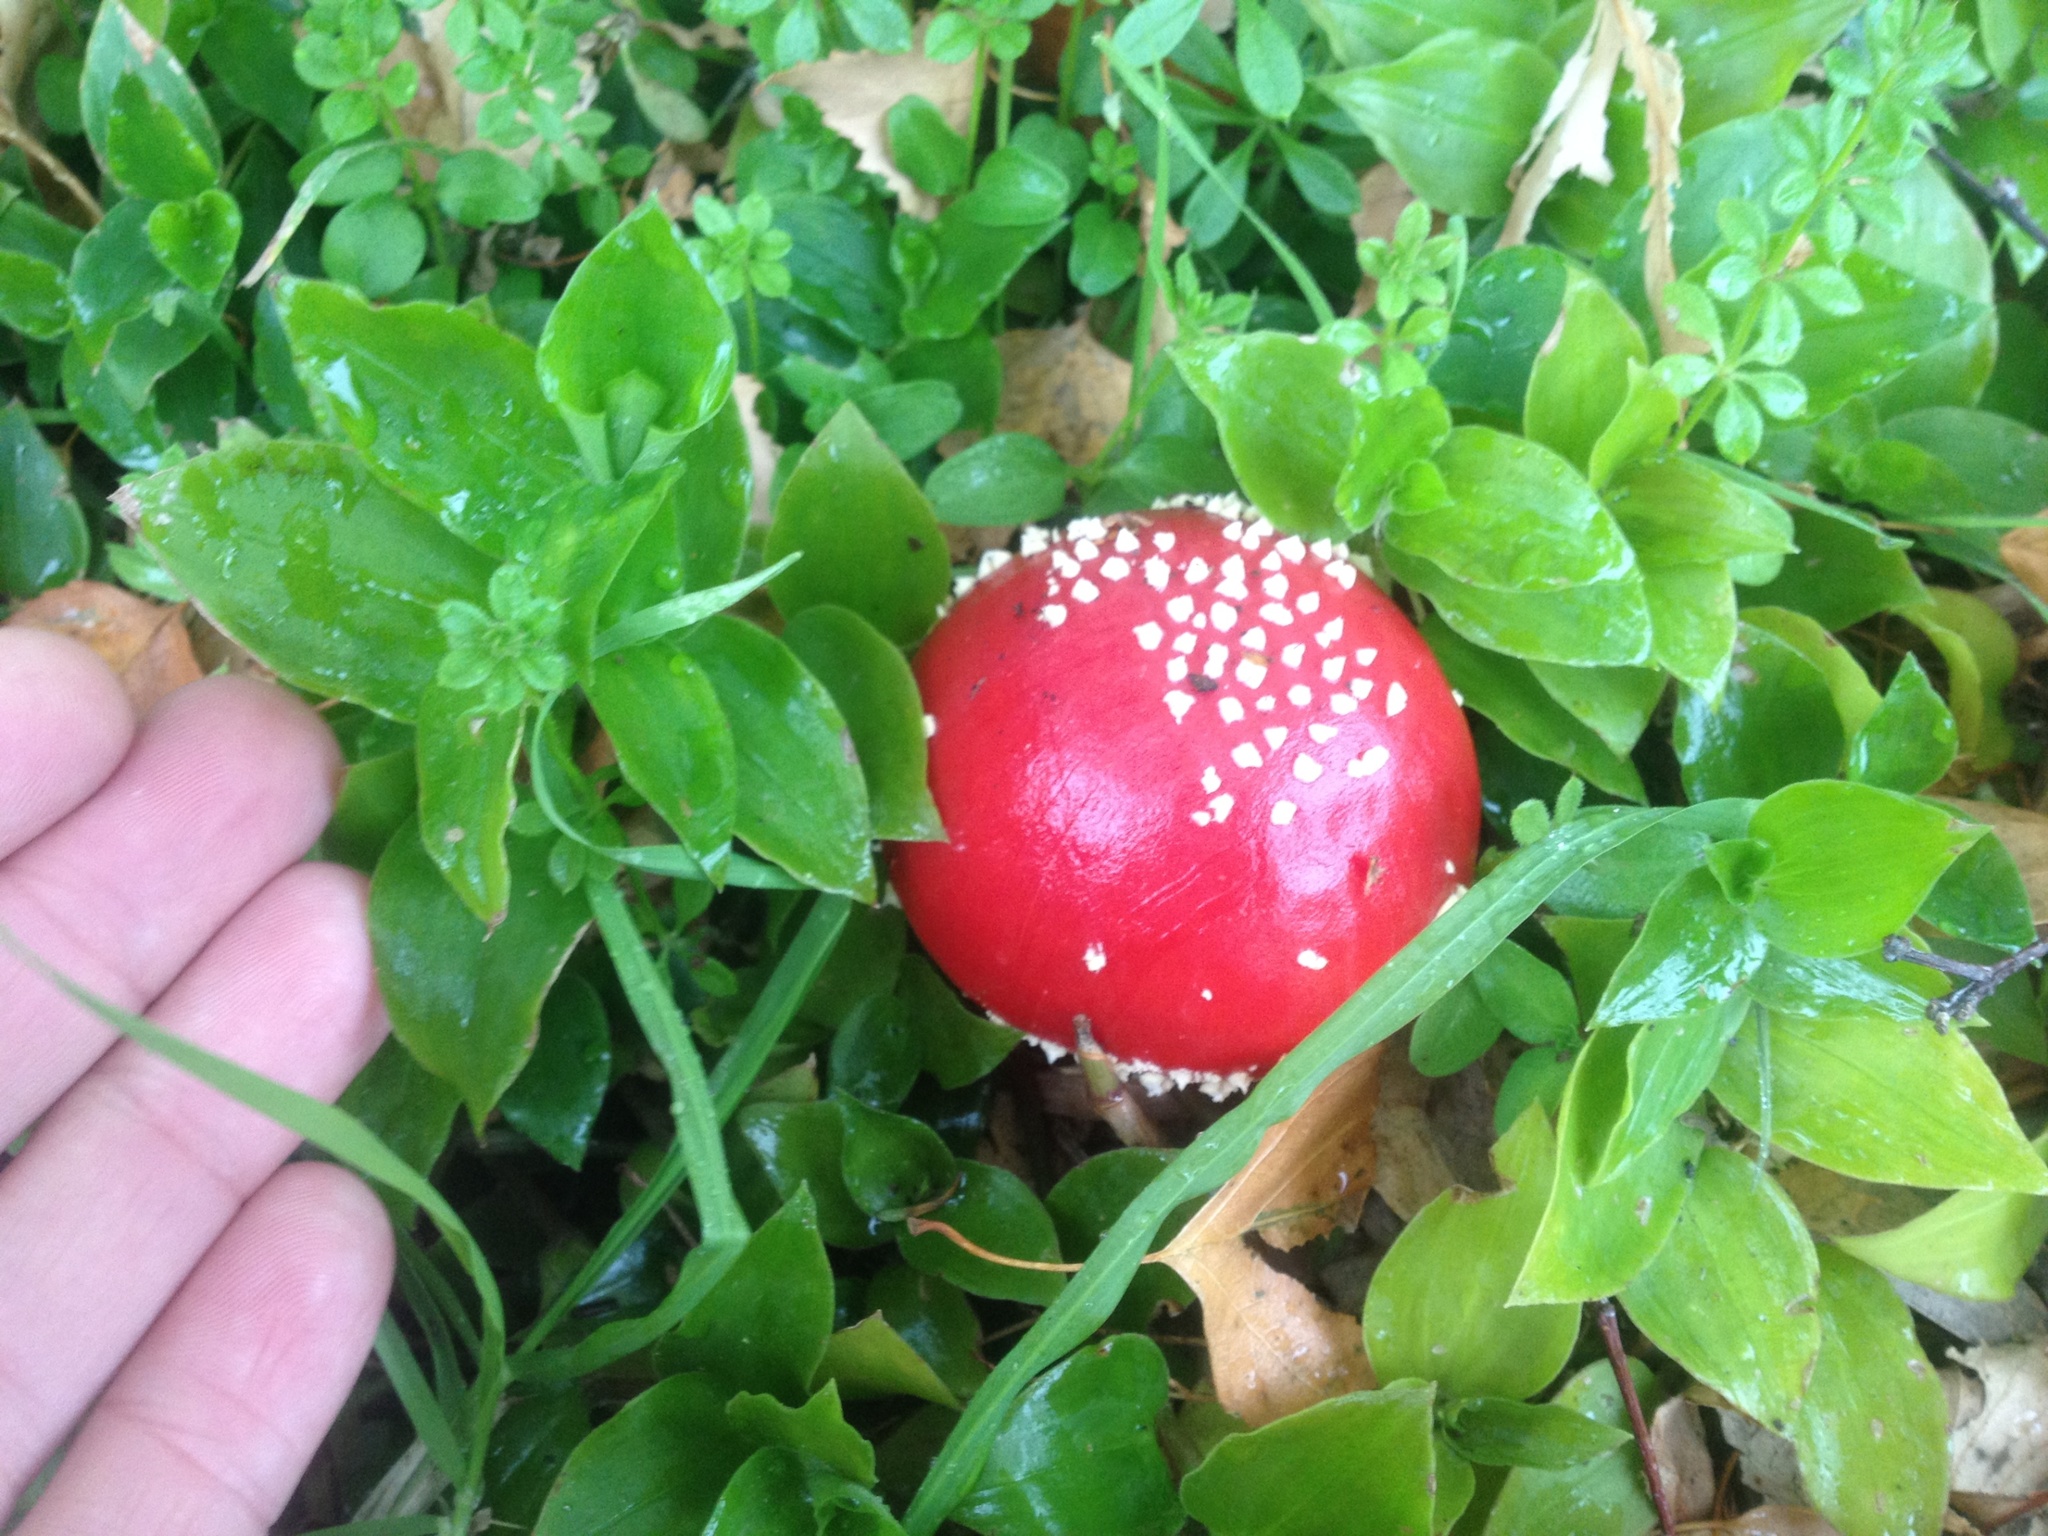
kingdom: Fungi
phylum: Basidiomycota
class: Agaricomycetes
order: Agaricales
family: Amanitaceae
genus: Amanita
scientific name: Amanita muscaria
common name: Fly agaric
